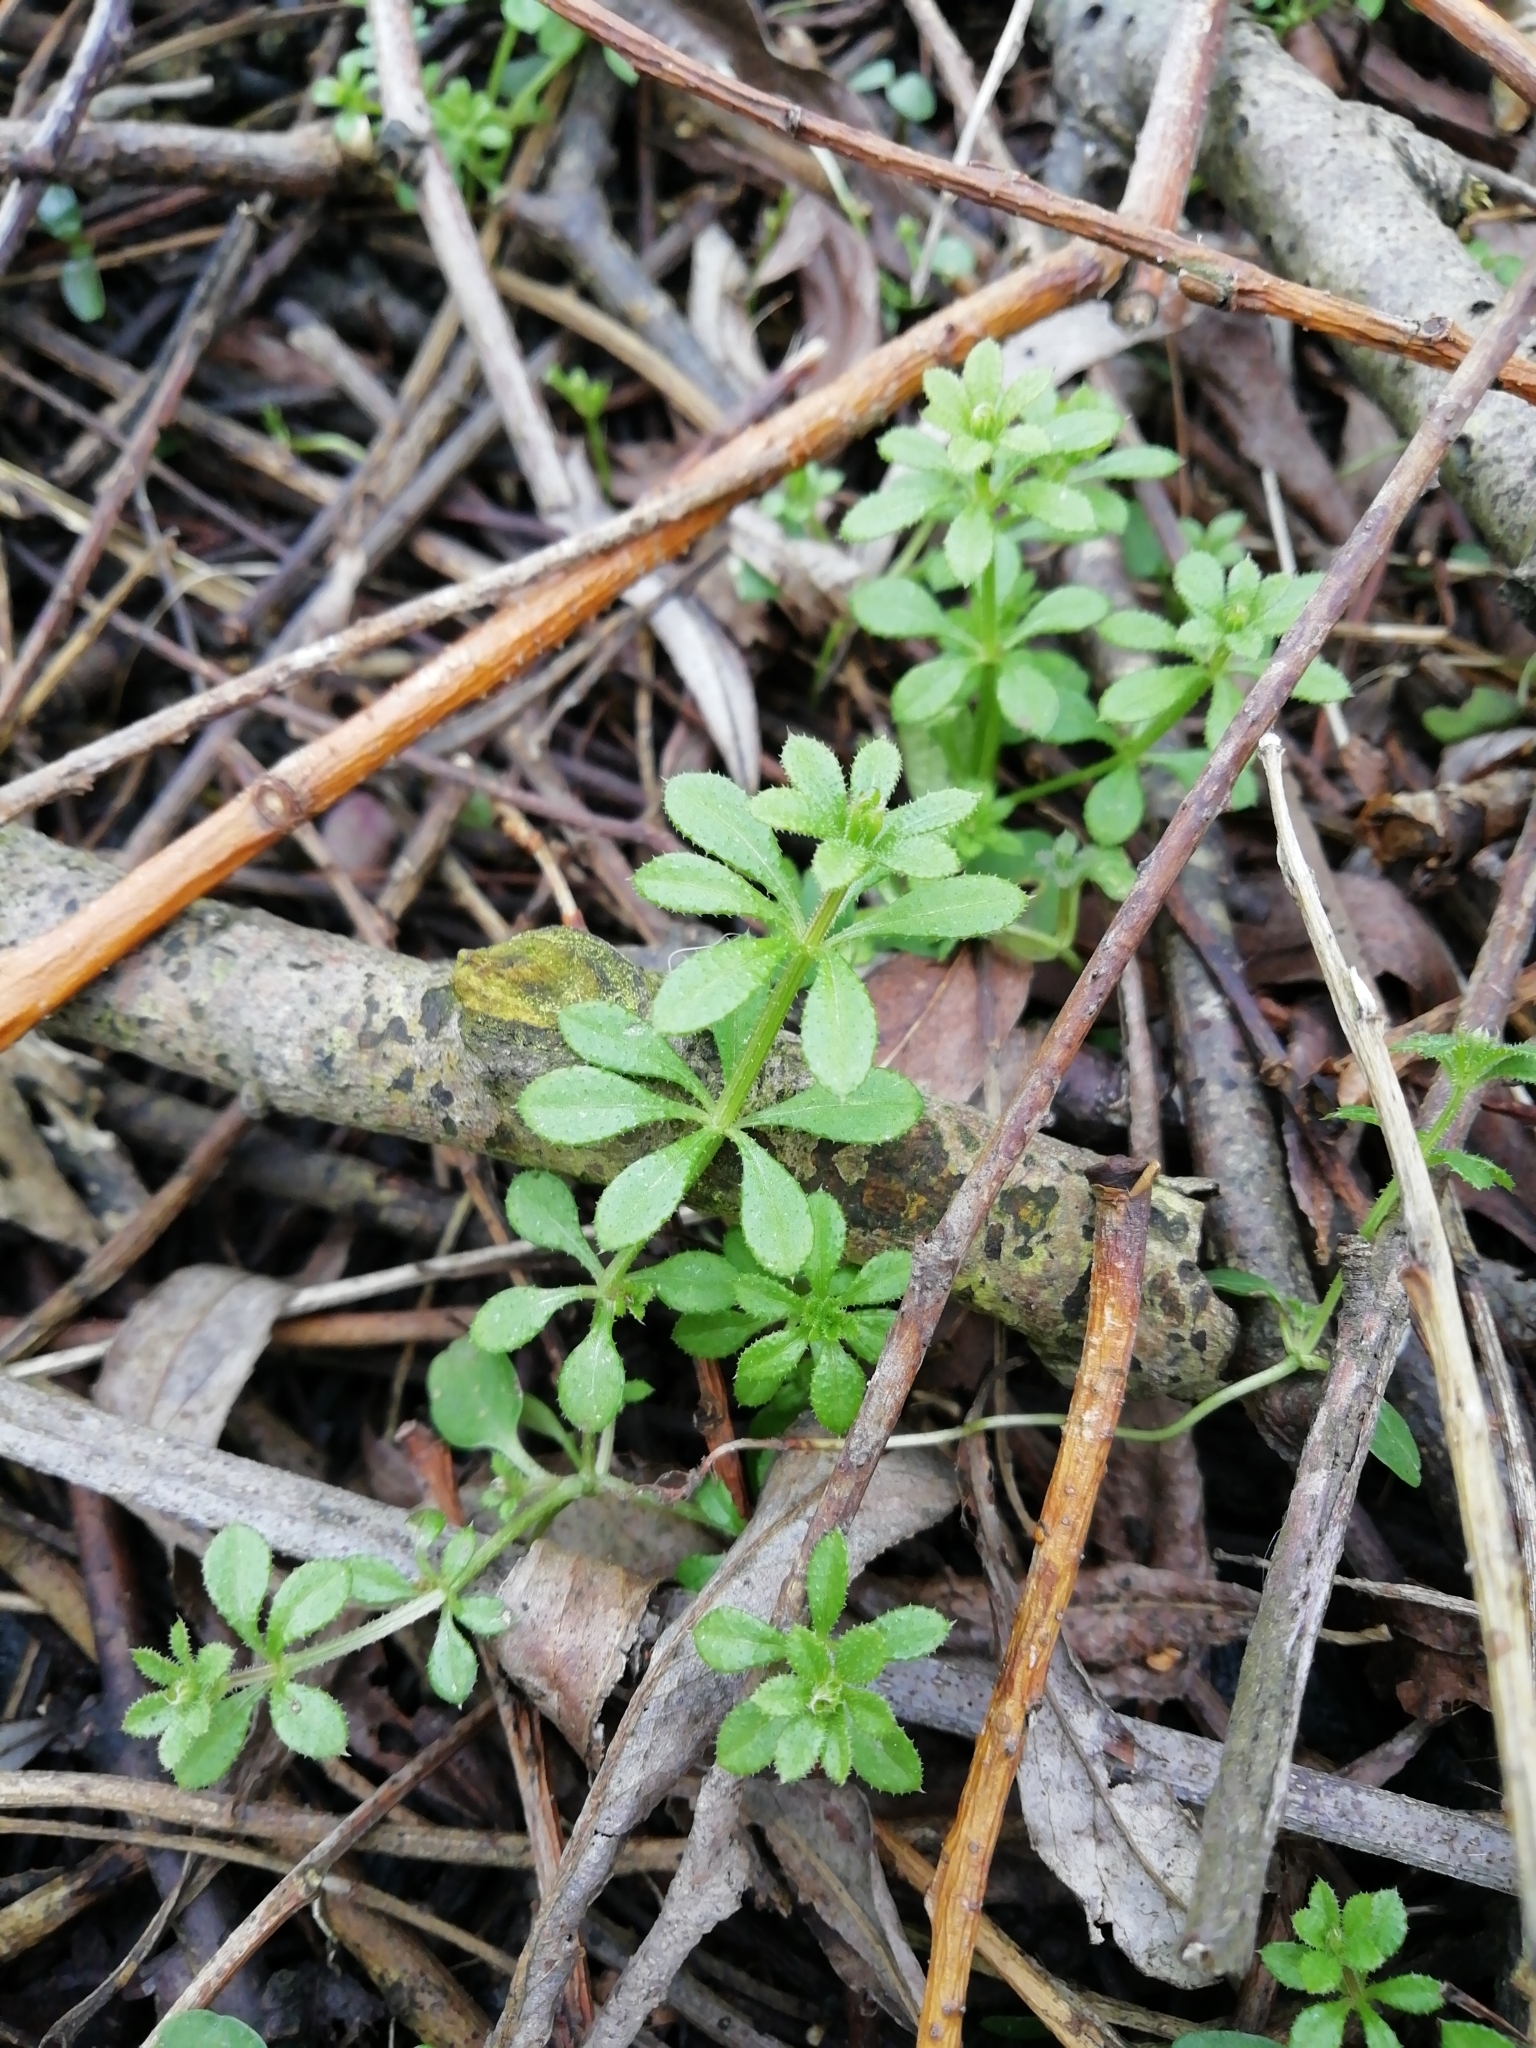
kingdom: Plantae
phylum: Tracheophyta
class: Magnoliopsida
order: Gentianales
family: Rubiaceae
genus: Galium
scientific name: Galium aparine
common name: Cleavers
